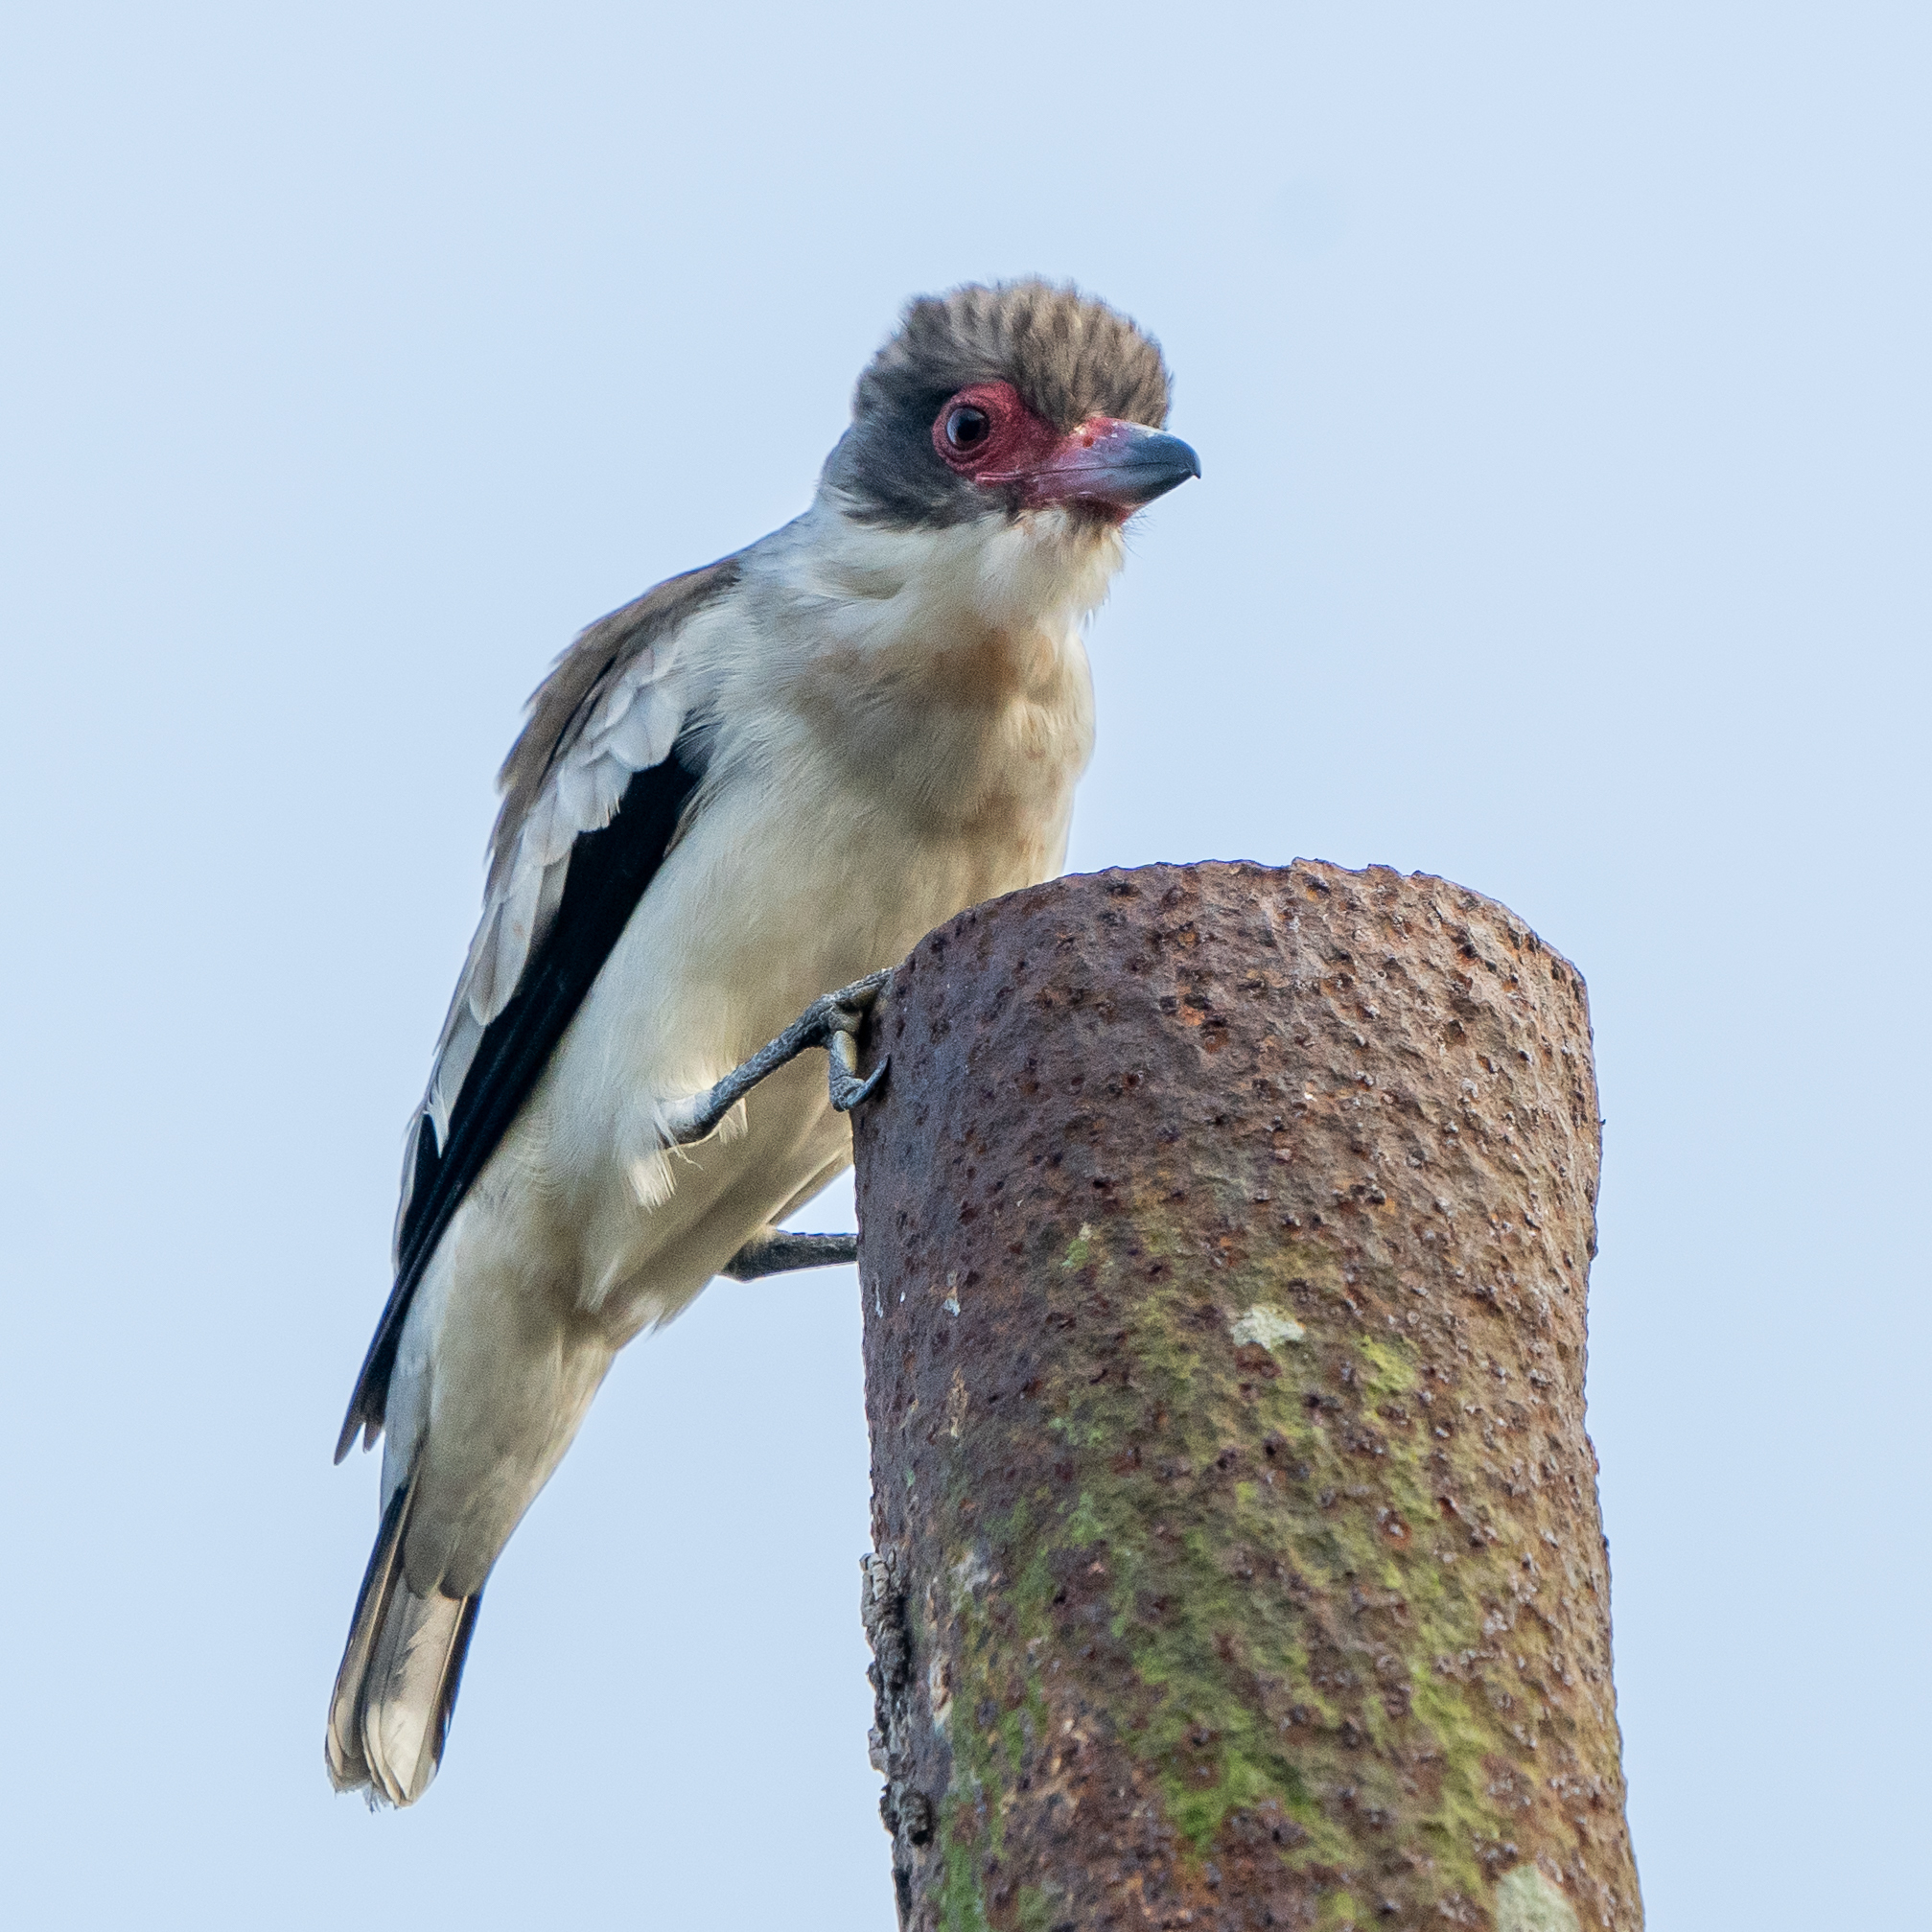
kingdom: Animalia
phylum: Chordata
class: Aves
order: Passeriformes
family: Cotingidae
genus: Tityra
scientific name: Tityra semifasciata
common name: Masked tityra
